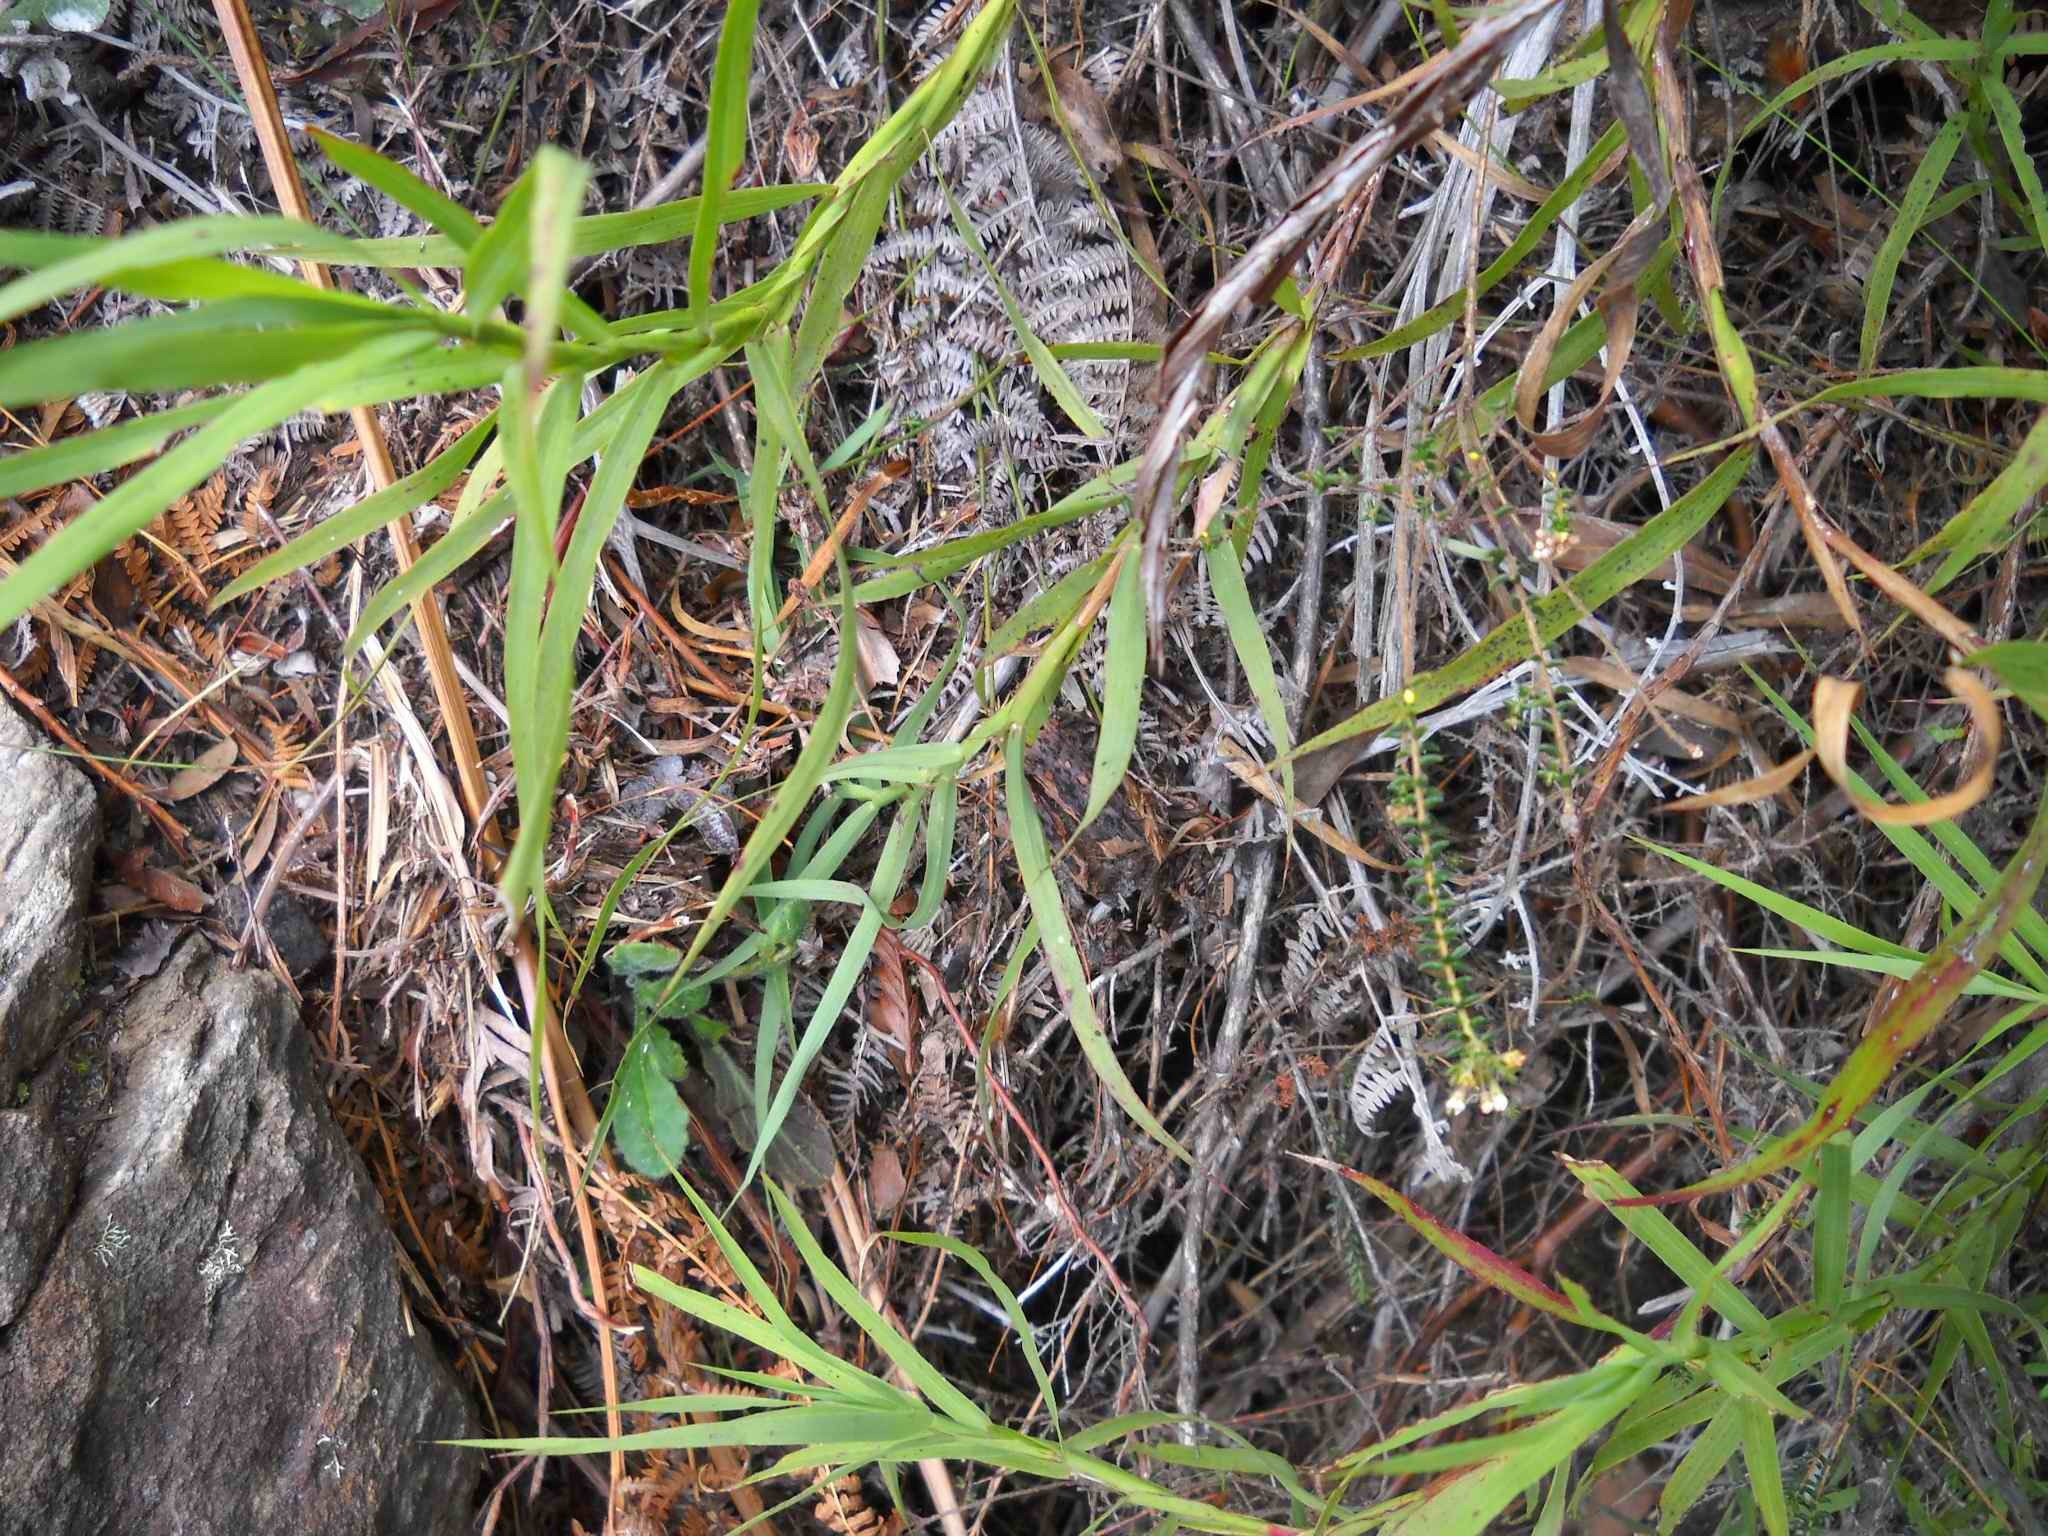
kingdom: Plantae
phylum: Tracheophyta
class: Magnoliopsida
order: Rosales
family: Rosaceae
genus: Cliffortia
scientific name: Cliffortia graminea
